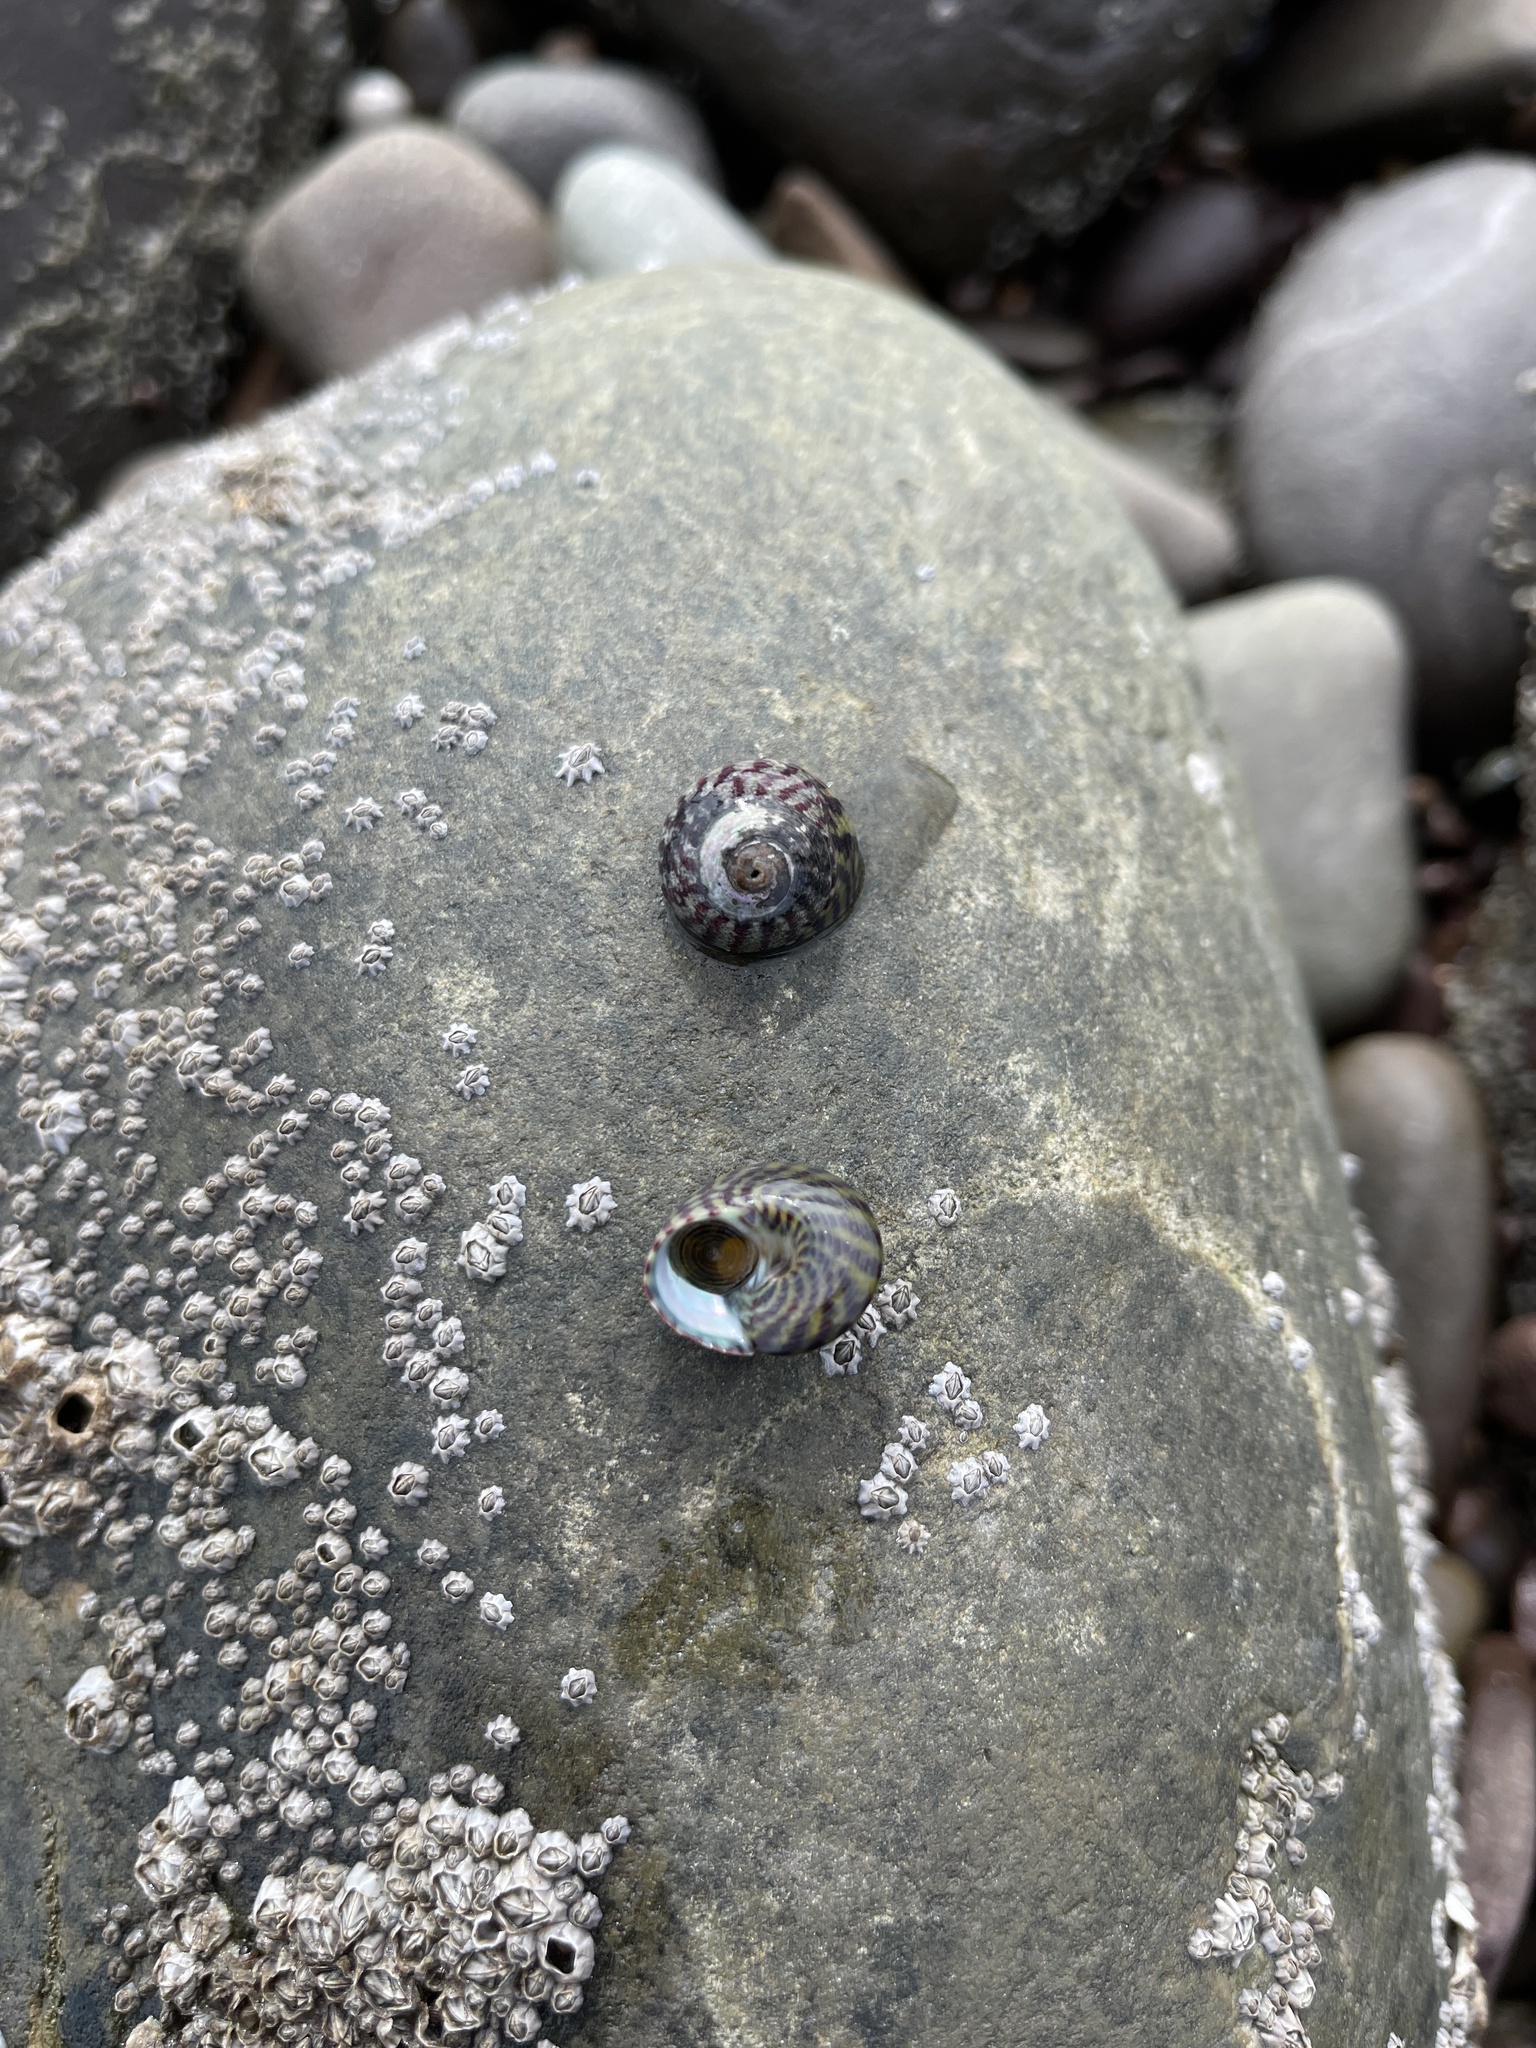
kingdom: Animalia
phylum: Mollusca
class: Gastropoda
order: Trochida
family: Trochidae
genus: Steromphala
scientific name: Steromphala umbilicalis
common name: Flat top shell
